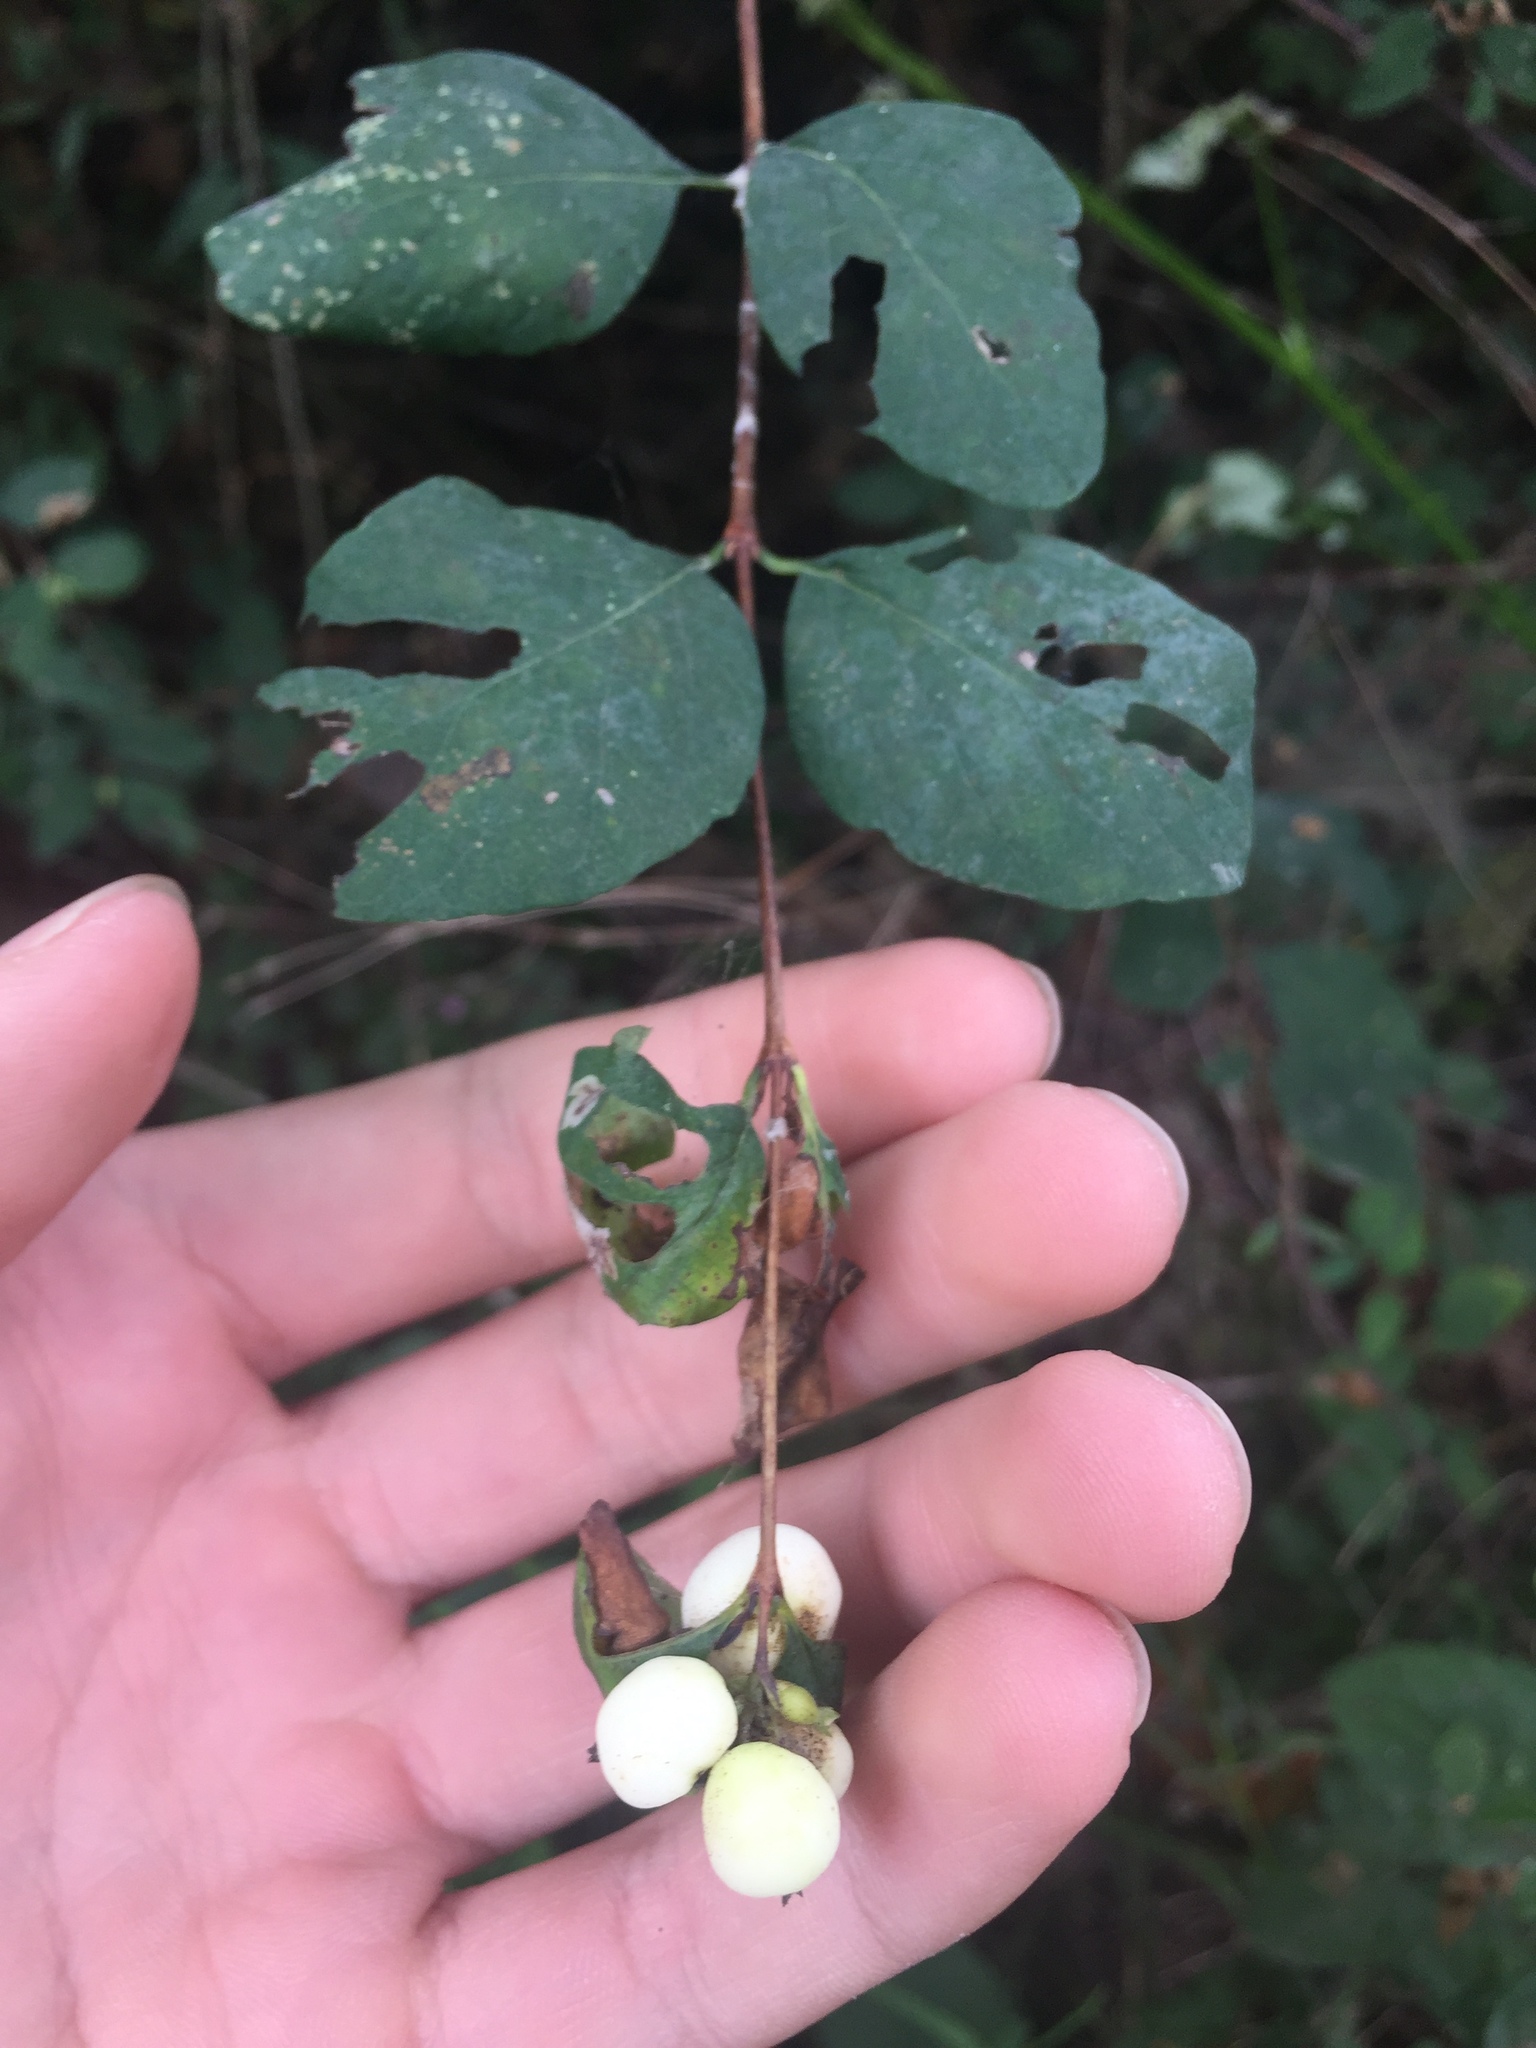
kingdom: Plantae
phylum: Tracheophyta
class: Magnoliopsida
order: Dipsacales
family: Caprifoliaceae
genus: Symphoricarpos
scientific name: Symphoricarpos albus
